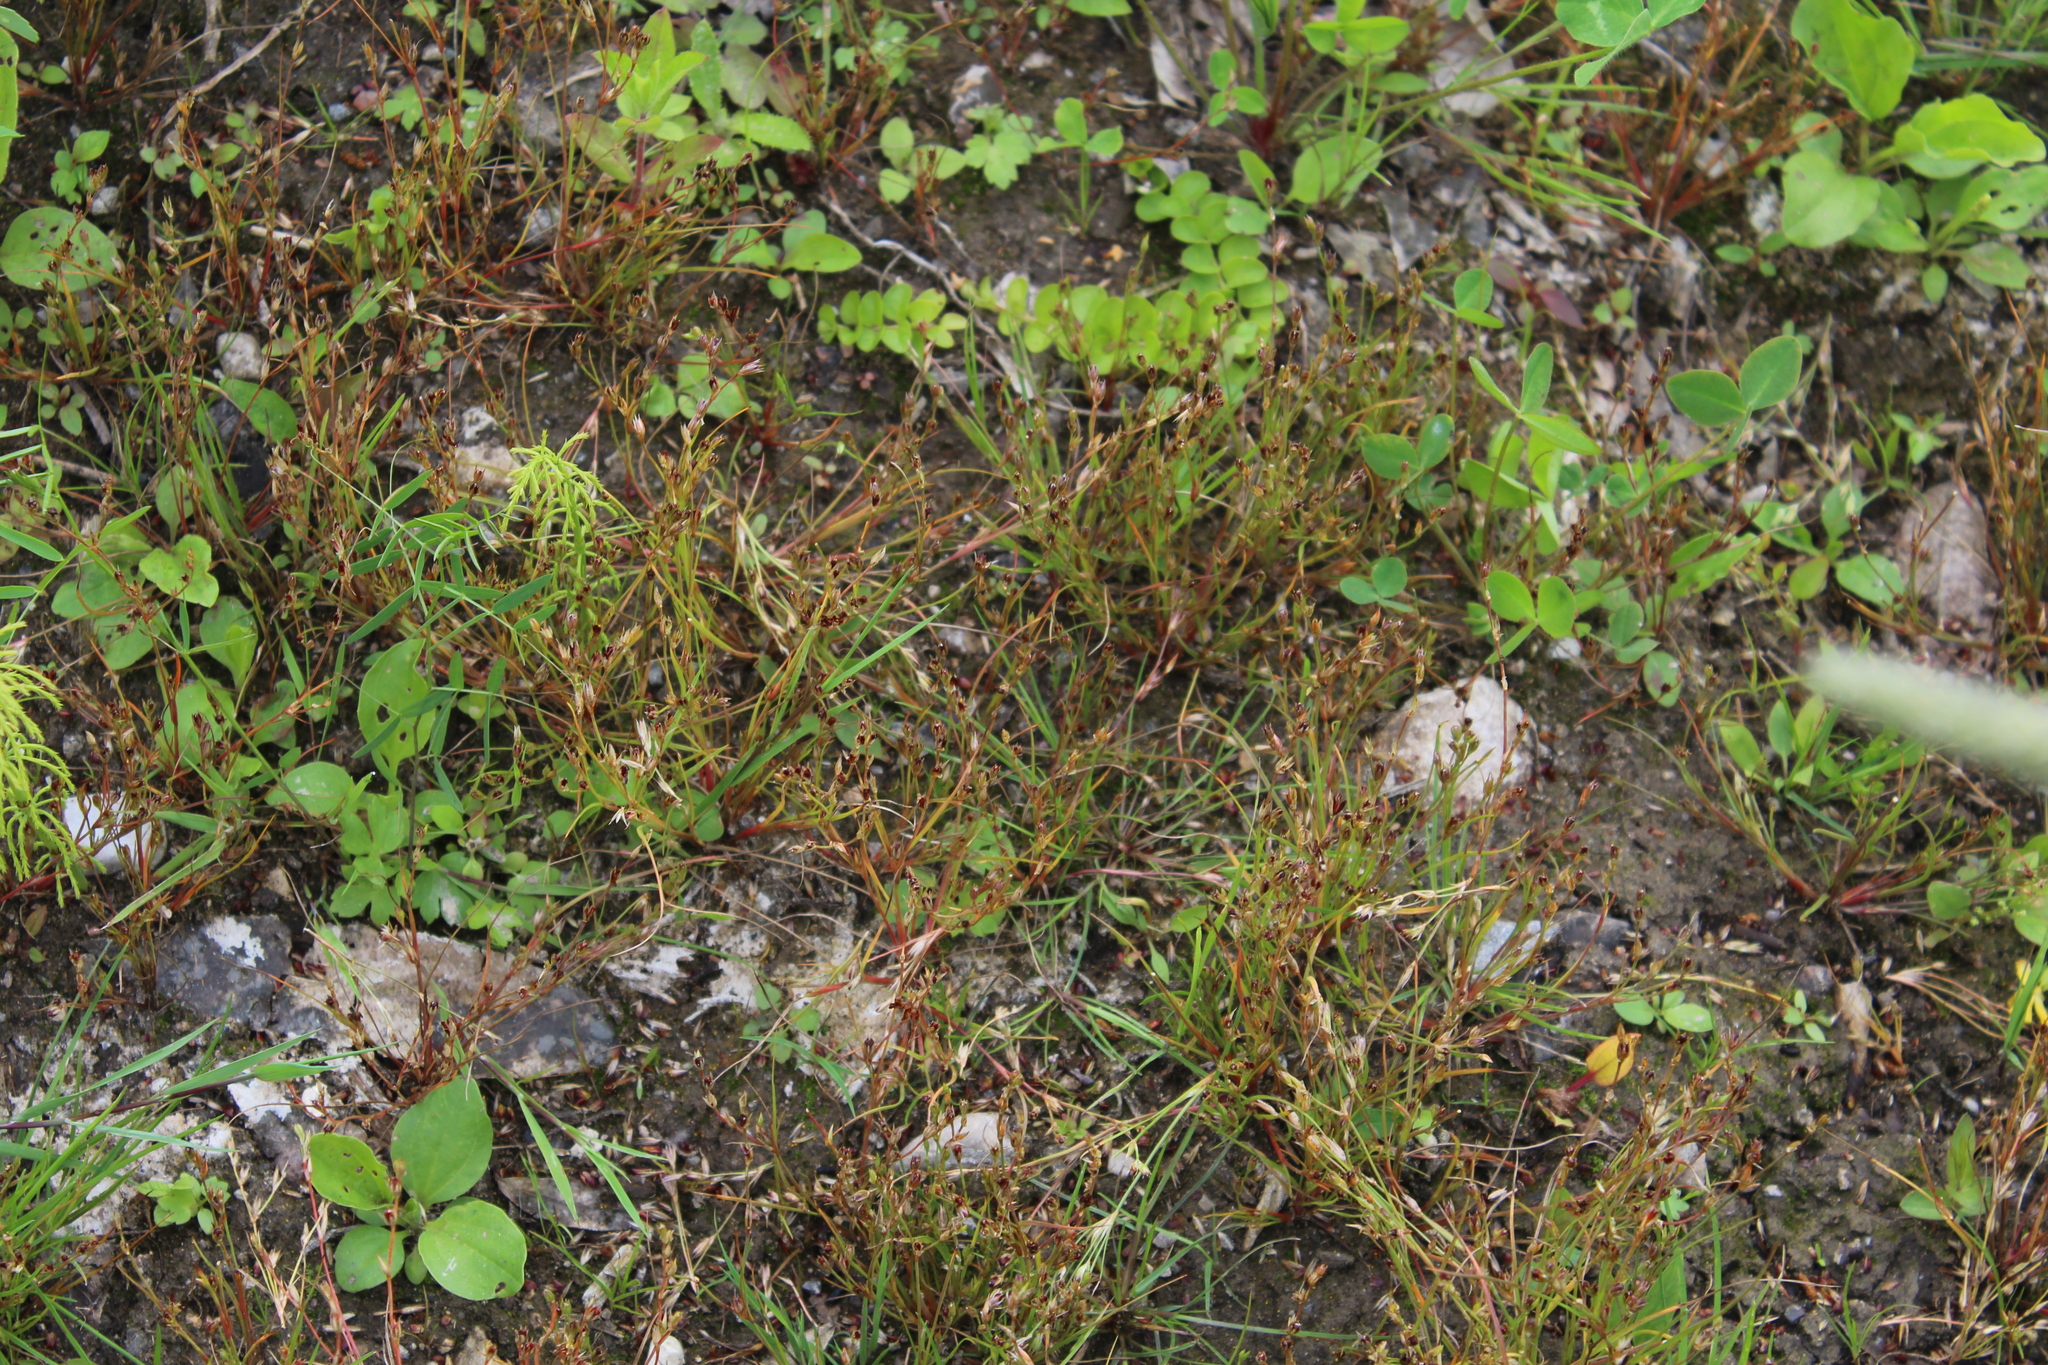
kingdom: Plantae
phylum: Tracheophyta
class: Liliopsida
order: Poales
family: Juncaceae
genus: Juncus
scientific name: Juncus bufonius
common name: Toad rush
